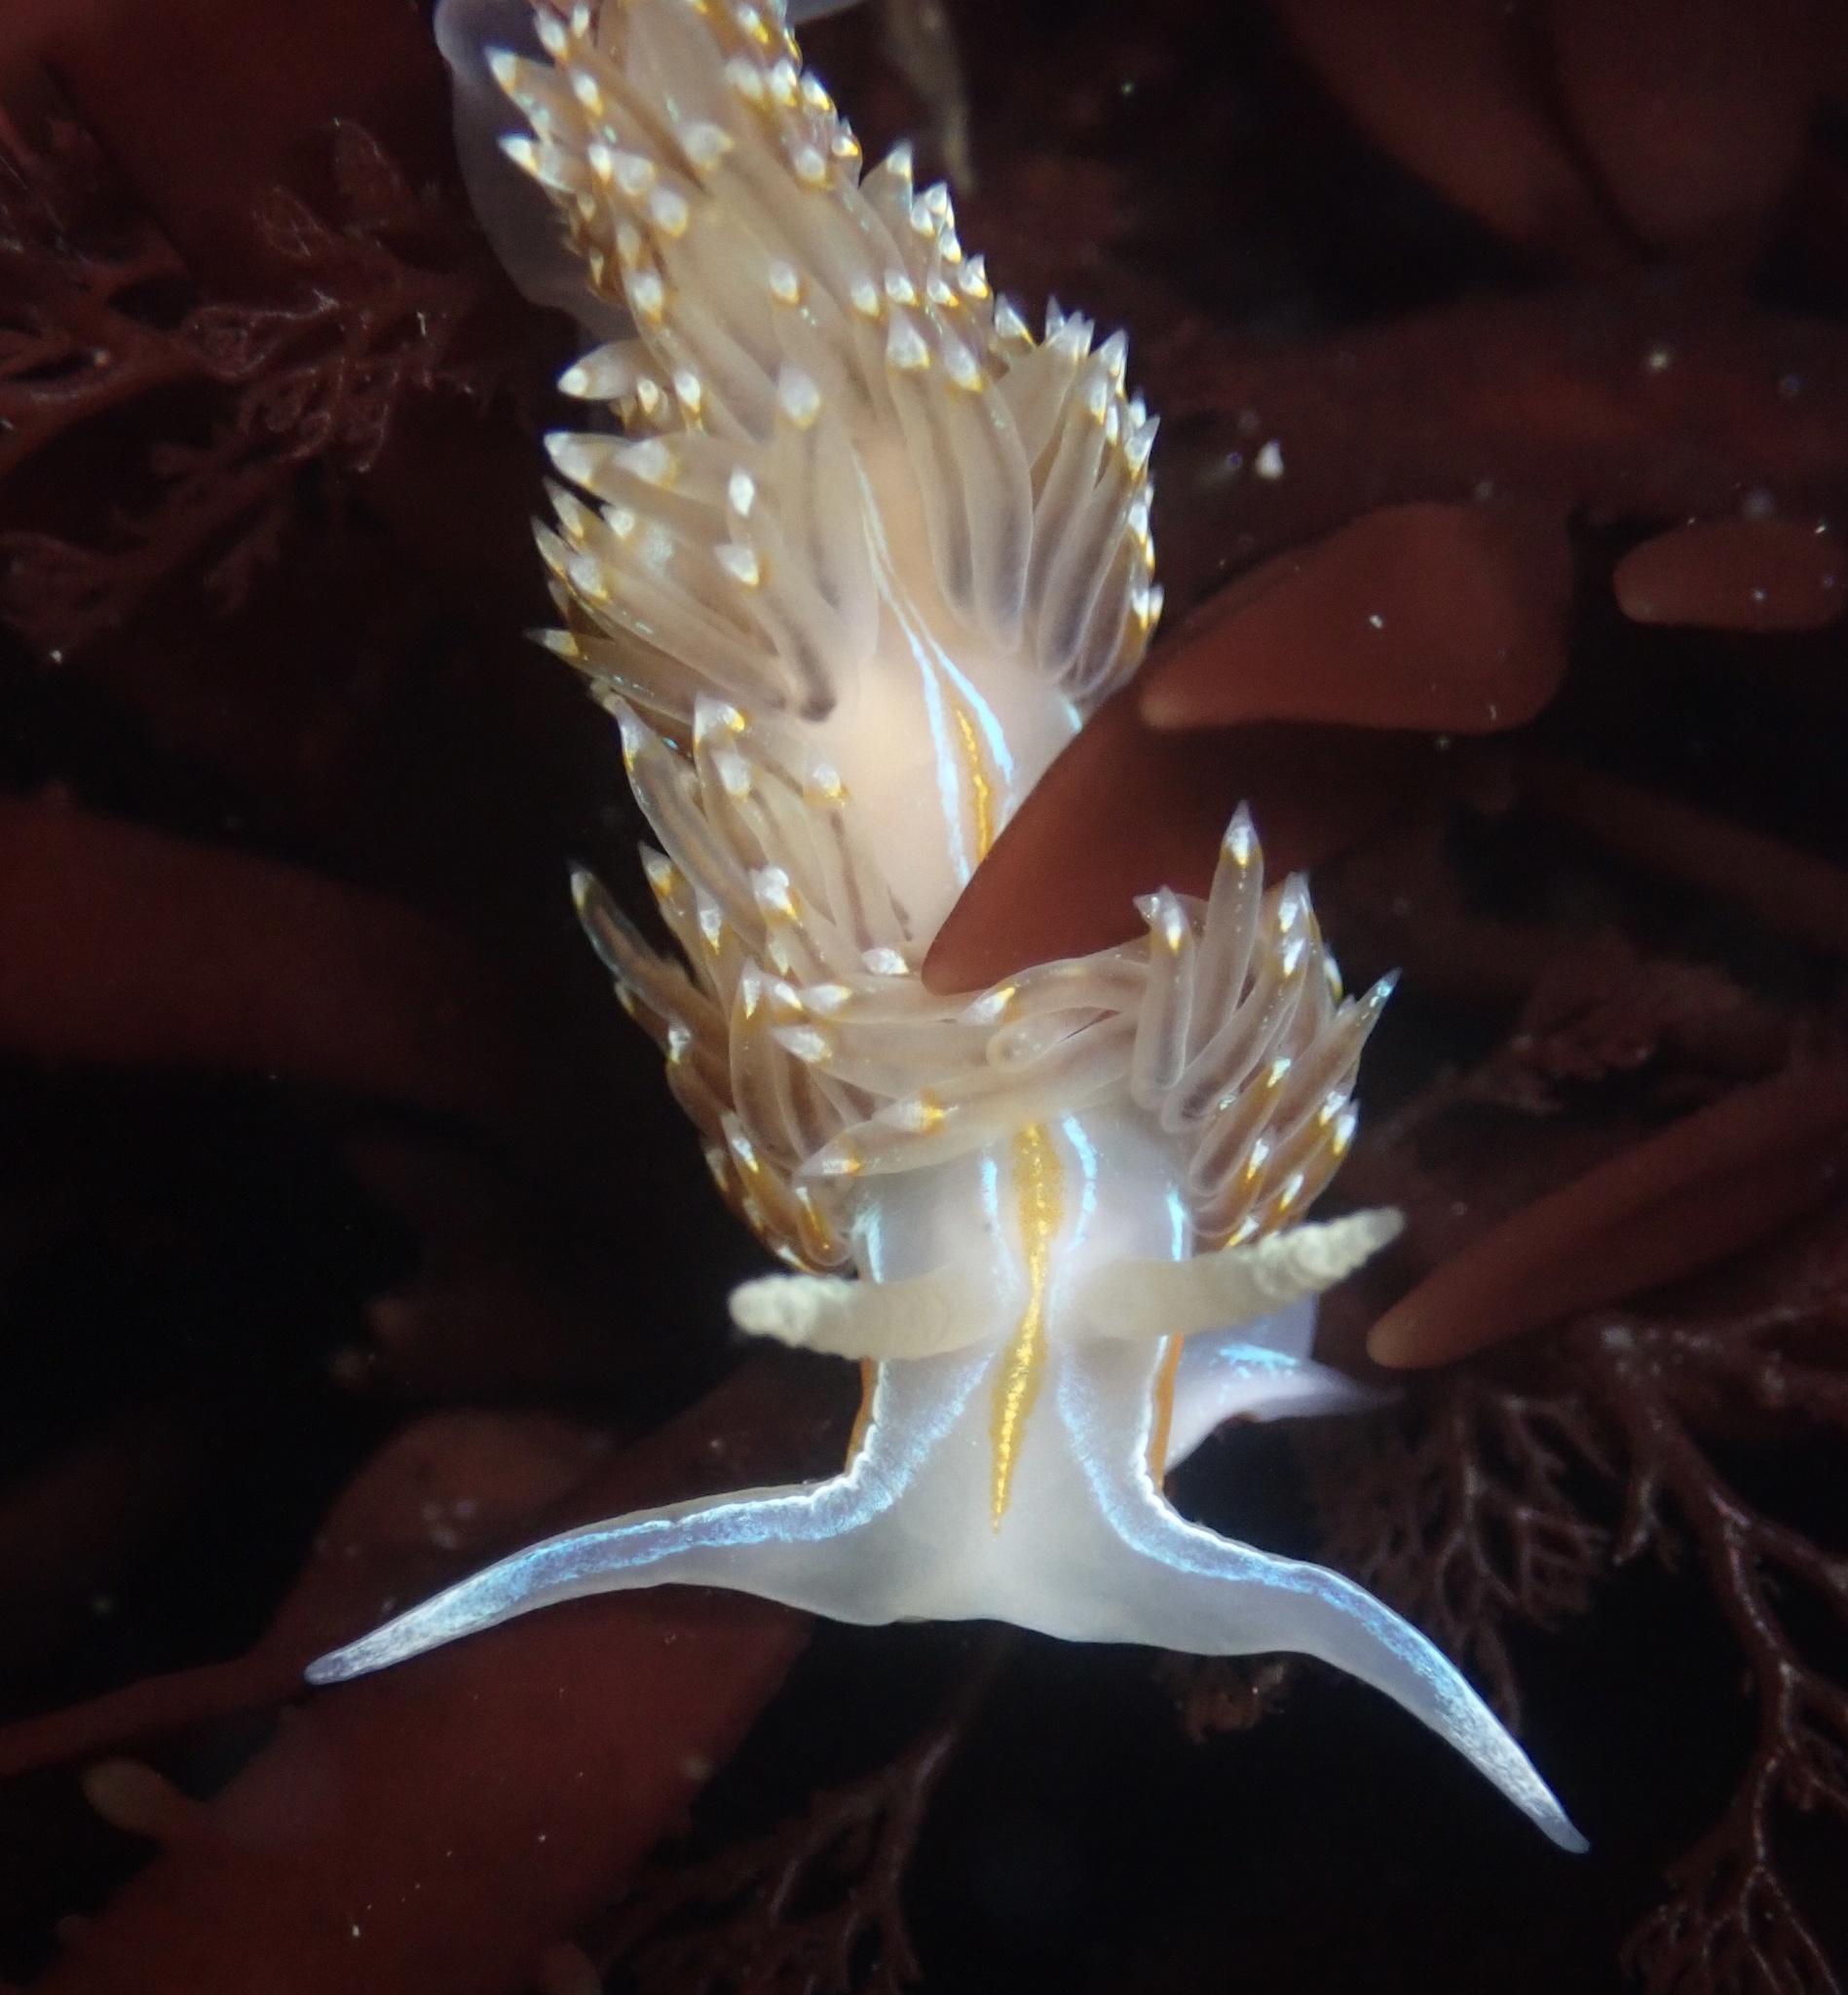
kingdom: Animalia
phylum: Mollusca
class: Gastropoda
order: Nudibranchia
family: Myrrhinidae
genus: Hermissenda
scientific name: Hermissenda opalescens
